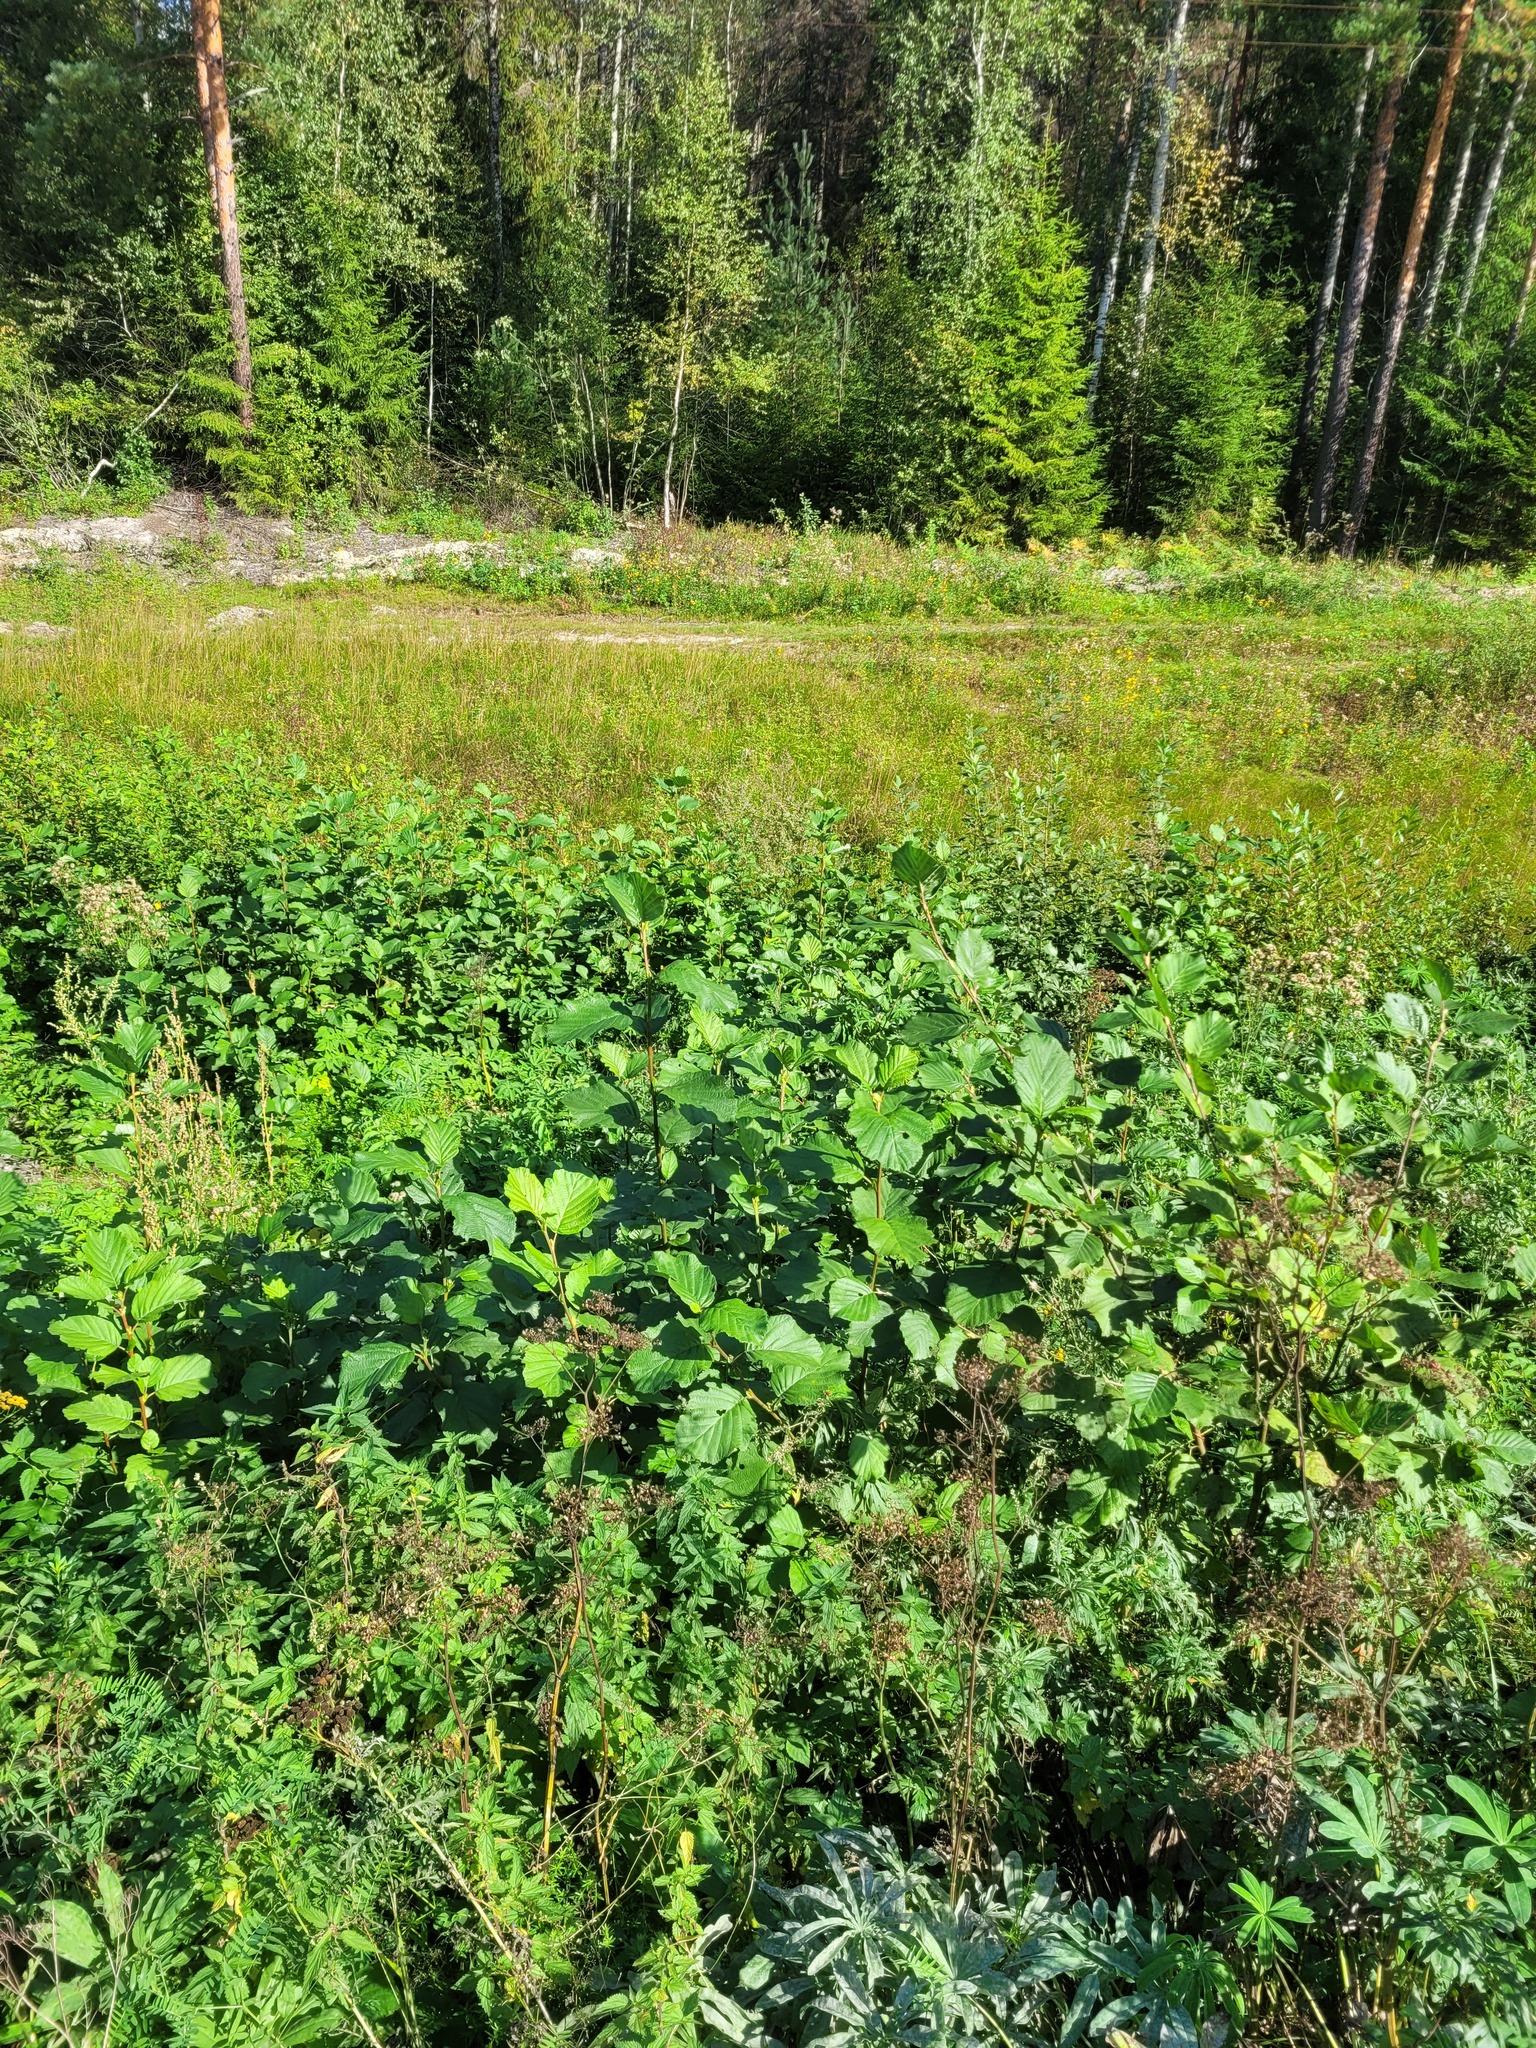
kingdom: Plantae
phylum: Tracheophyta
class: Magnoliopsida
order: Fagales
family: Betulaceae
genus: Alnus
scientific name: Alnus glutinosa
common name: Black alder
